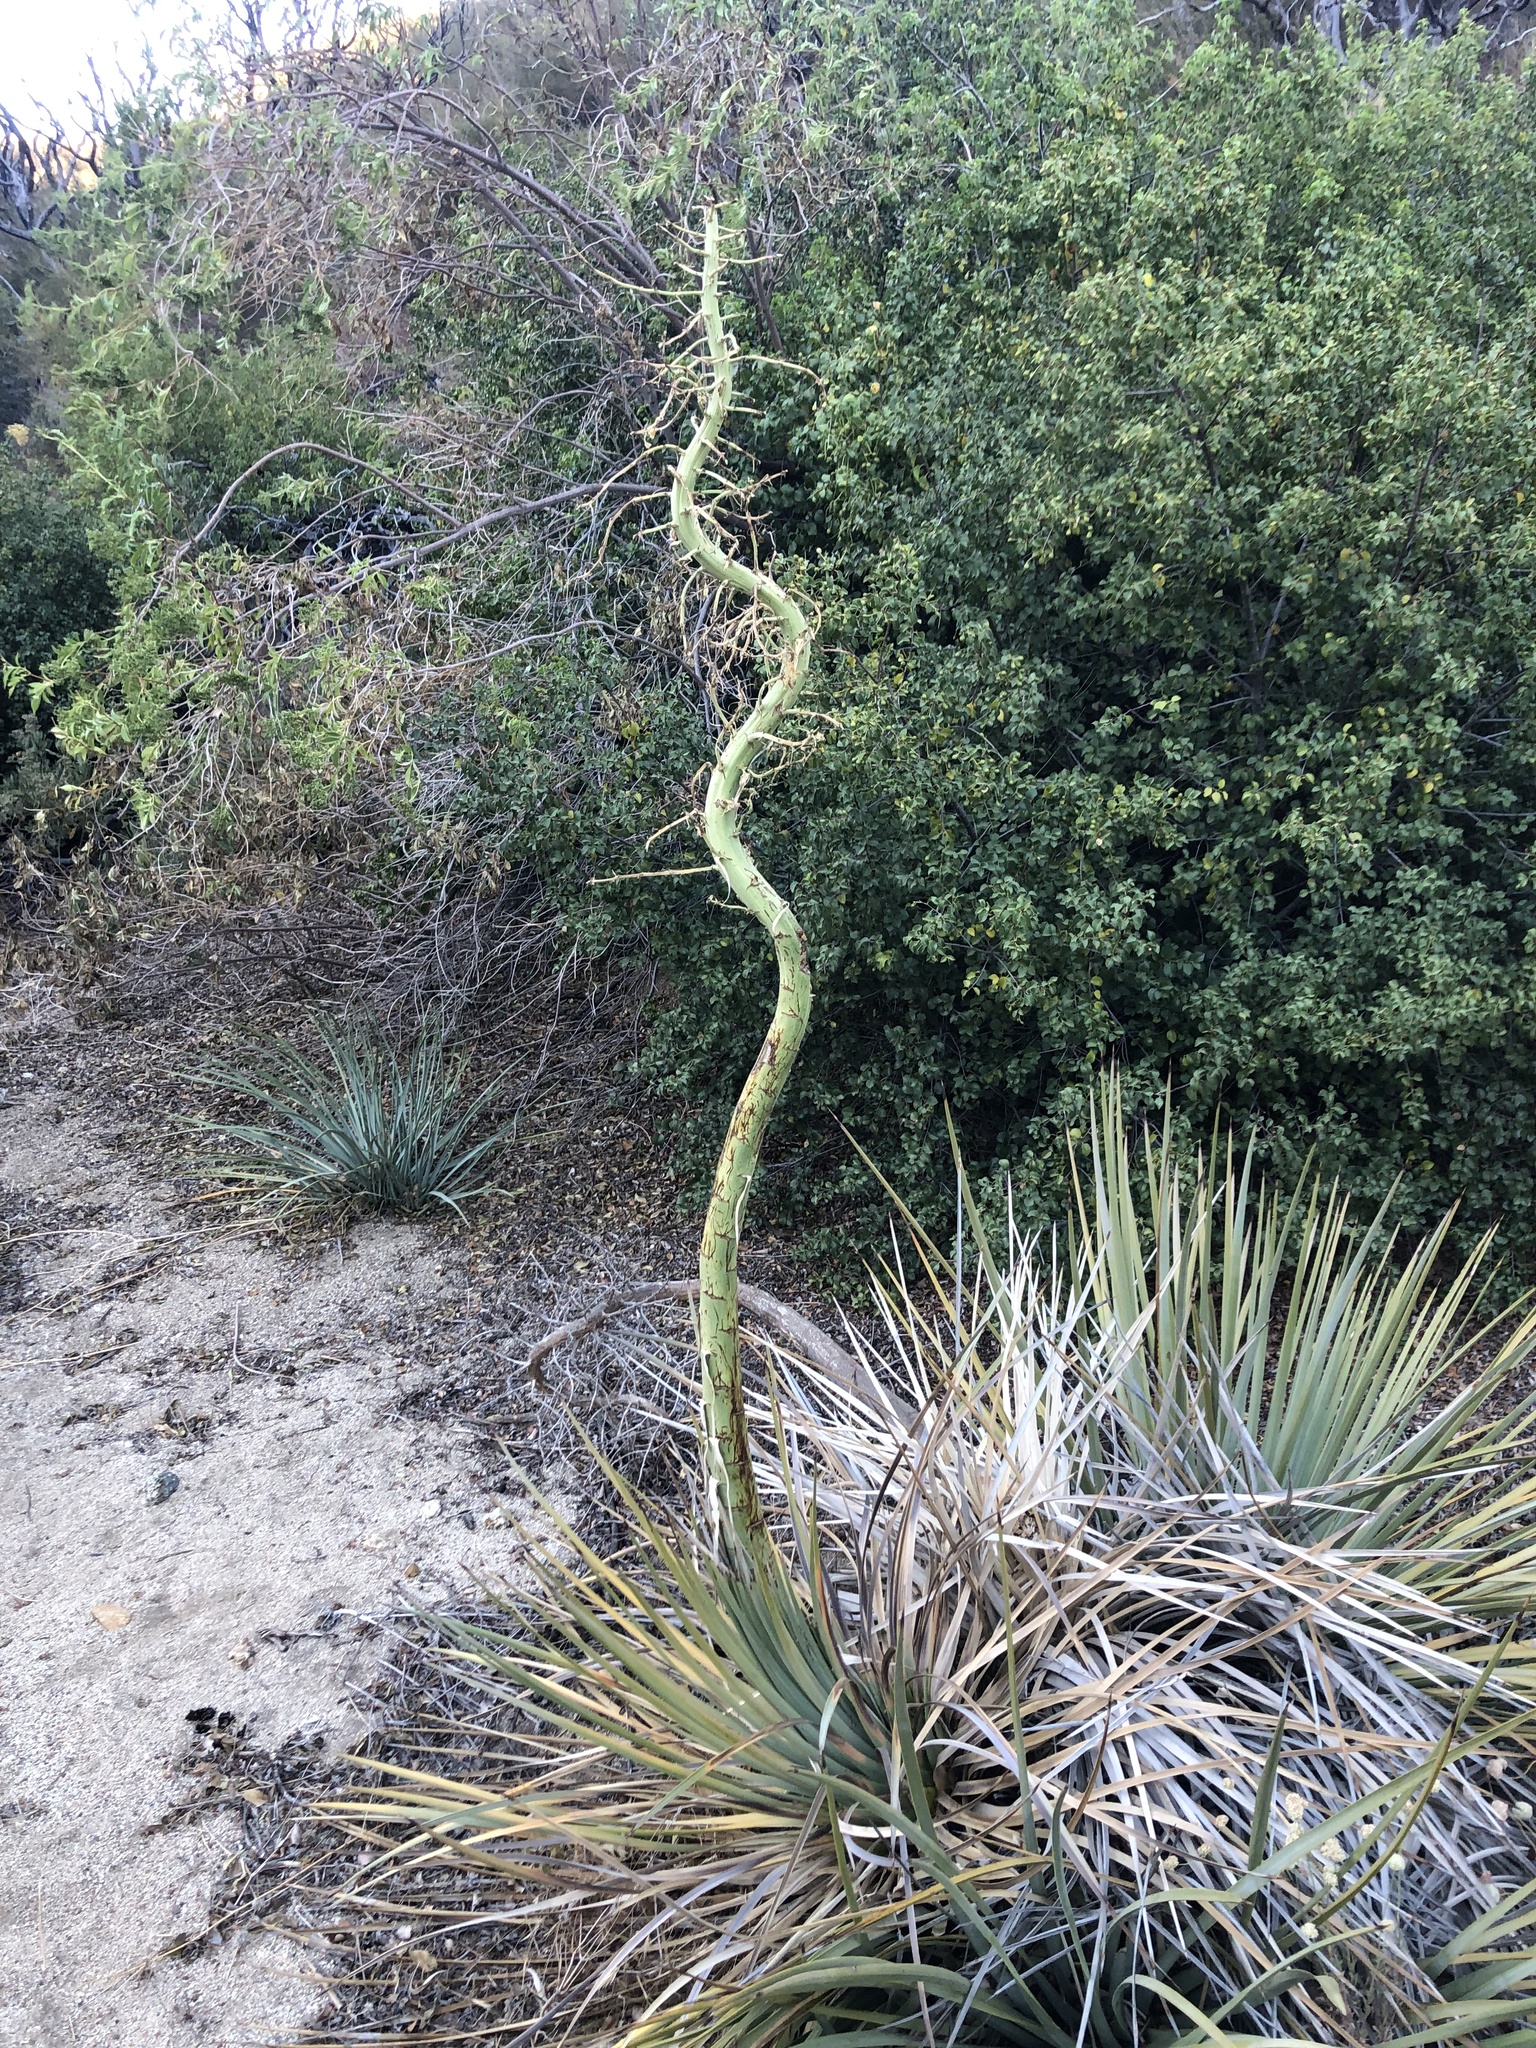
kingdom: Plantae
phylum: Tracheophyta
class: Liliopsida
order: Asparagales
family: Asparagaceae
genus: Hesperoyucca
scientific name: Hesperoyucca whipplei
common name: Our lord's-candle
